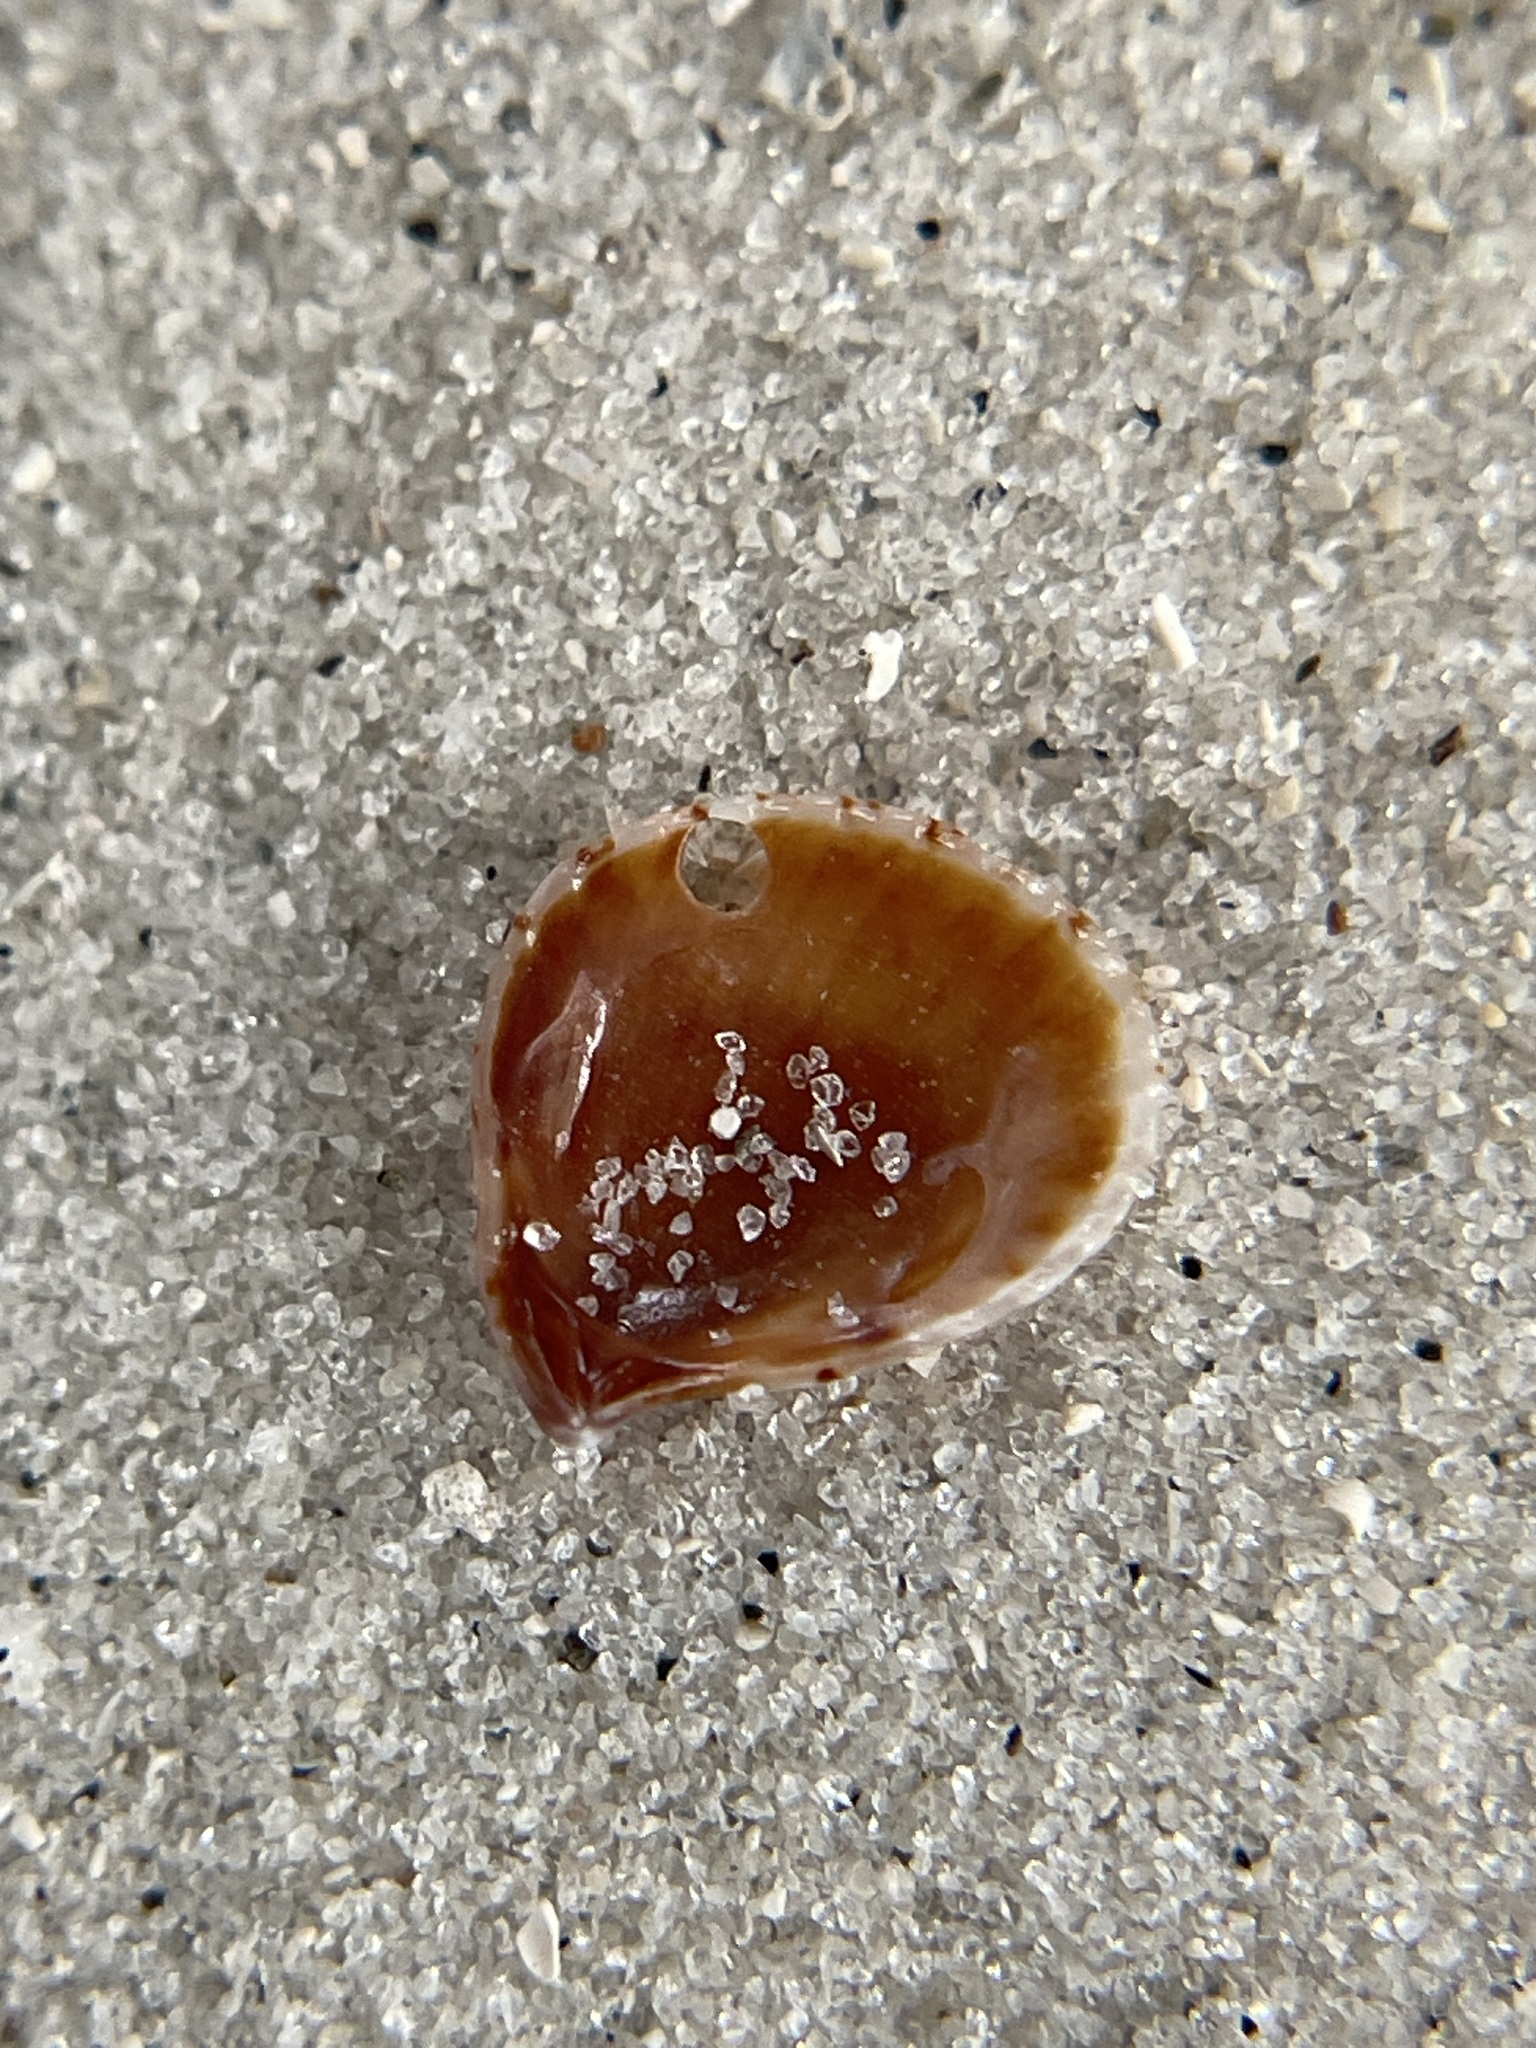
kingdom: Animalia
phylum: Mollusca
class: Bivalvia
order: Carditida
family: Carditidae
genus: Pteromeris
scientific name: Pteromeris perplana
